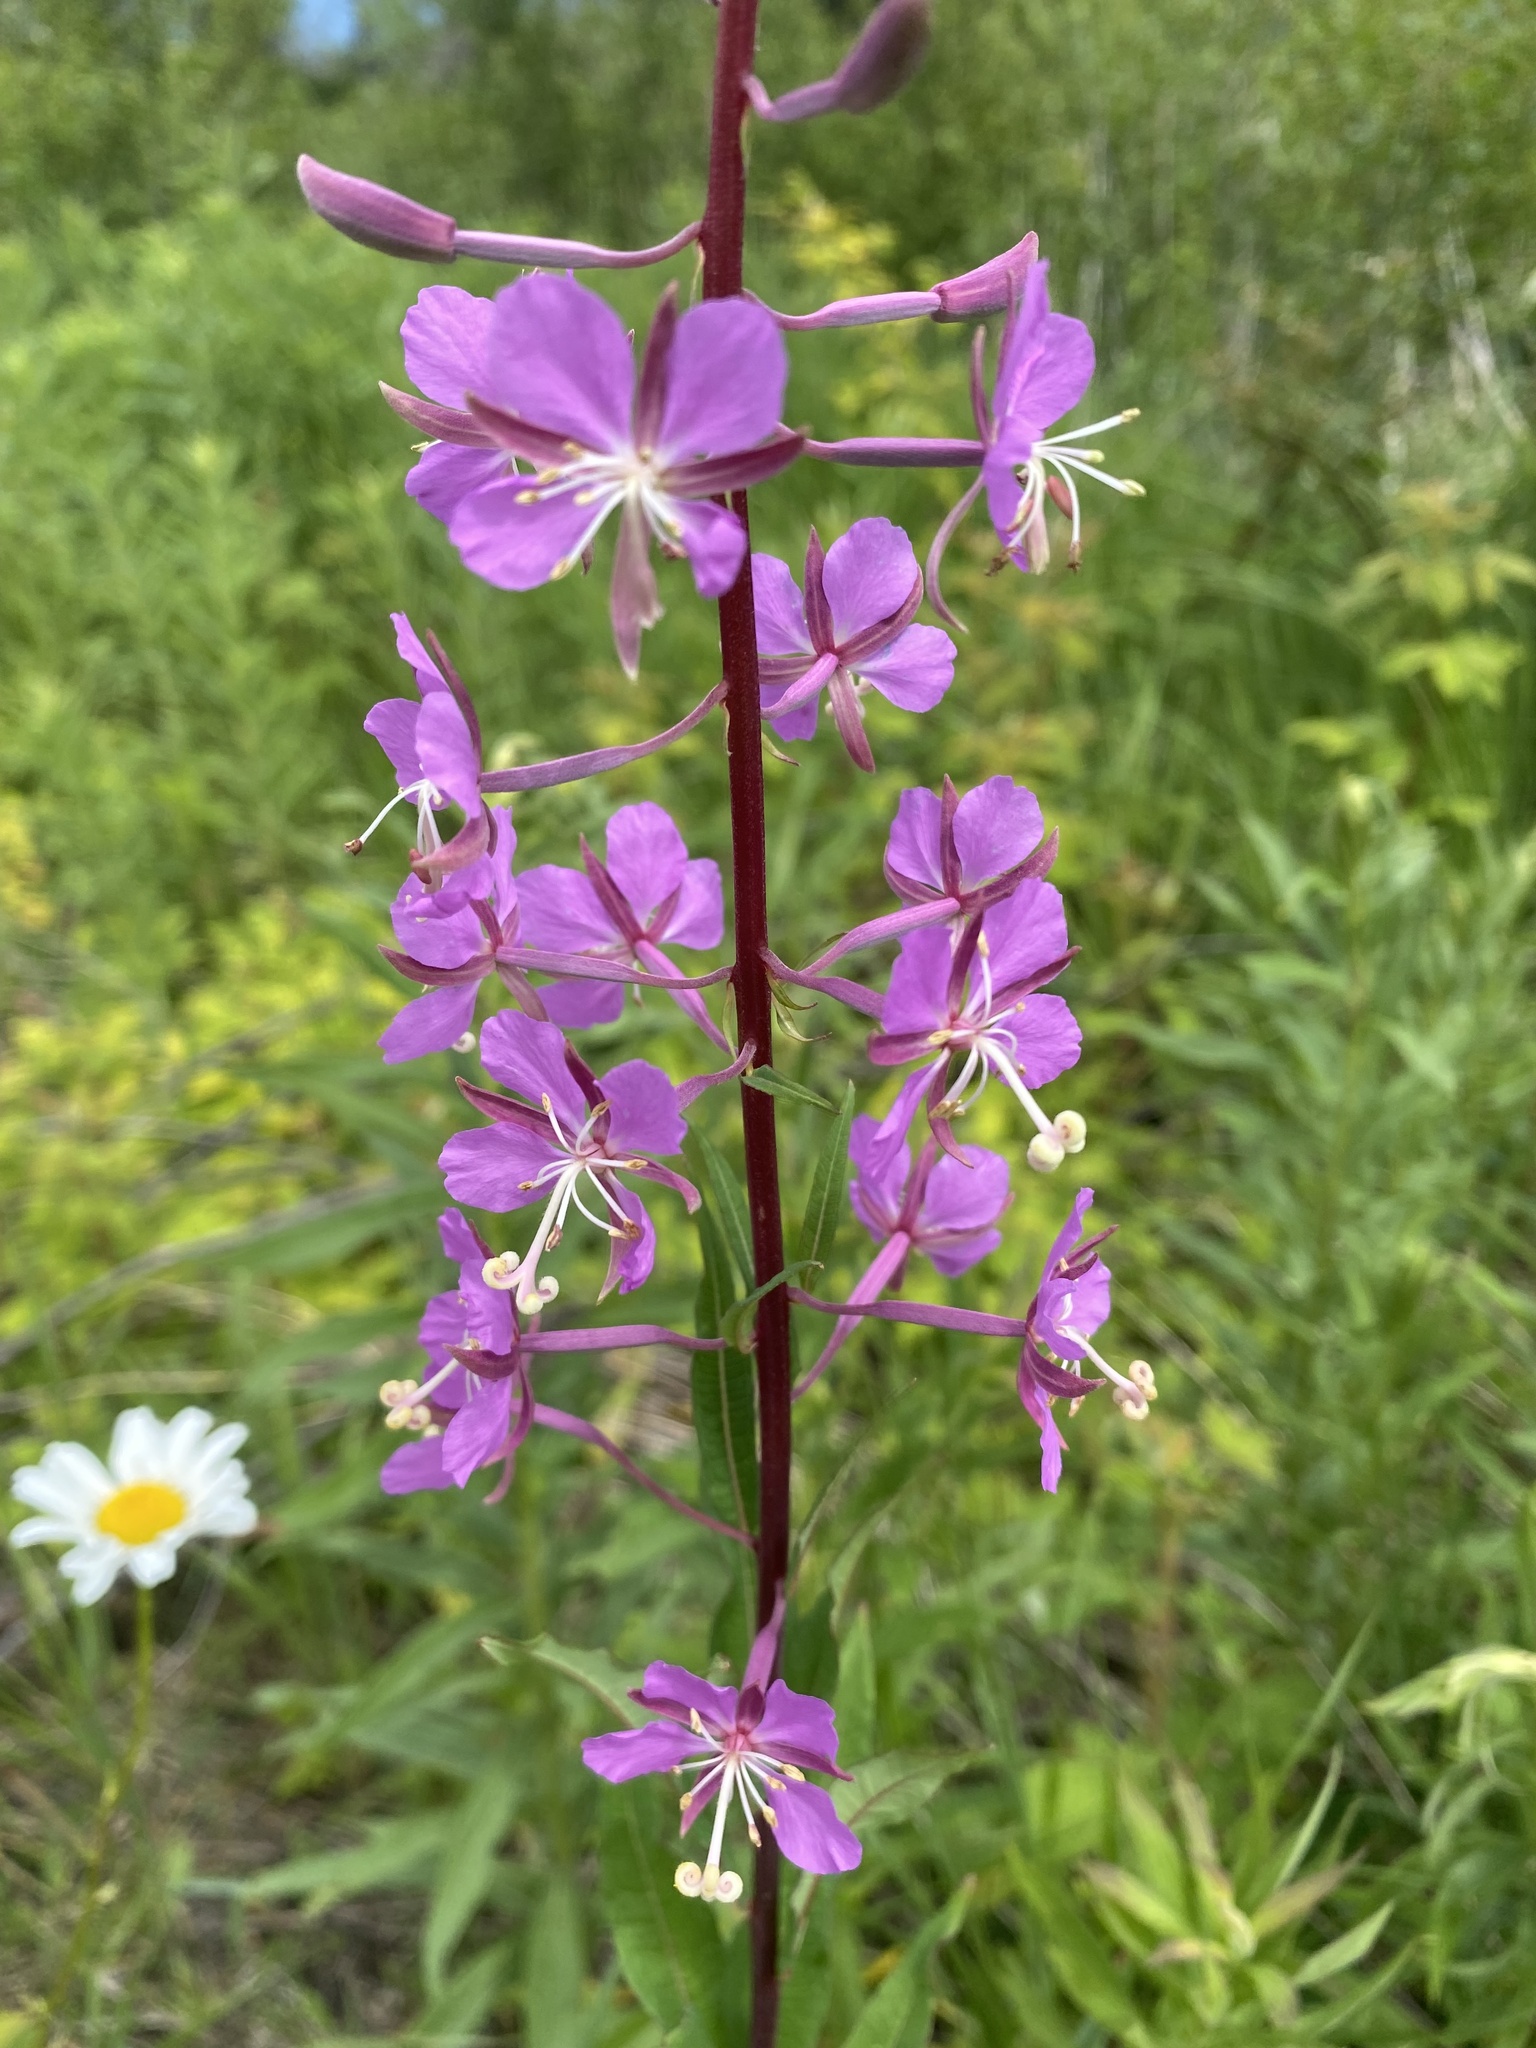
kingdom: Plantae
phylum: Tracheophyta
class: Magnoliopsida
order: Myrtales
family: Onagraceae
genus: Chamaenerion
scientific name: Chamaenerion angustifolium
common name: Fireweed
